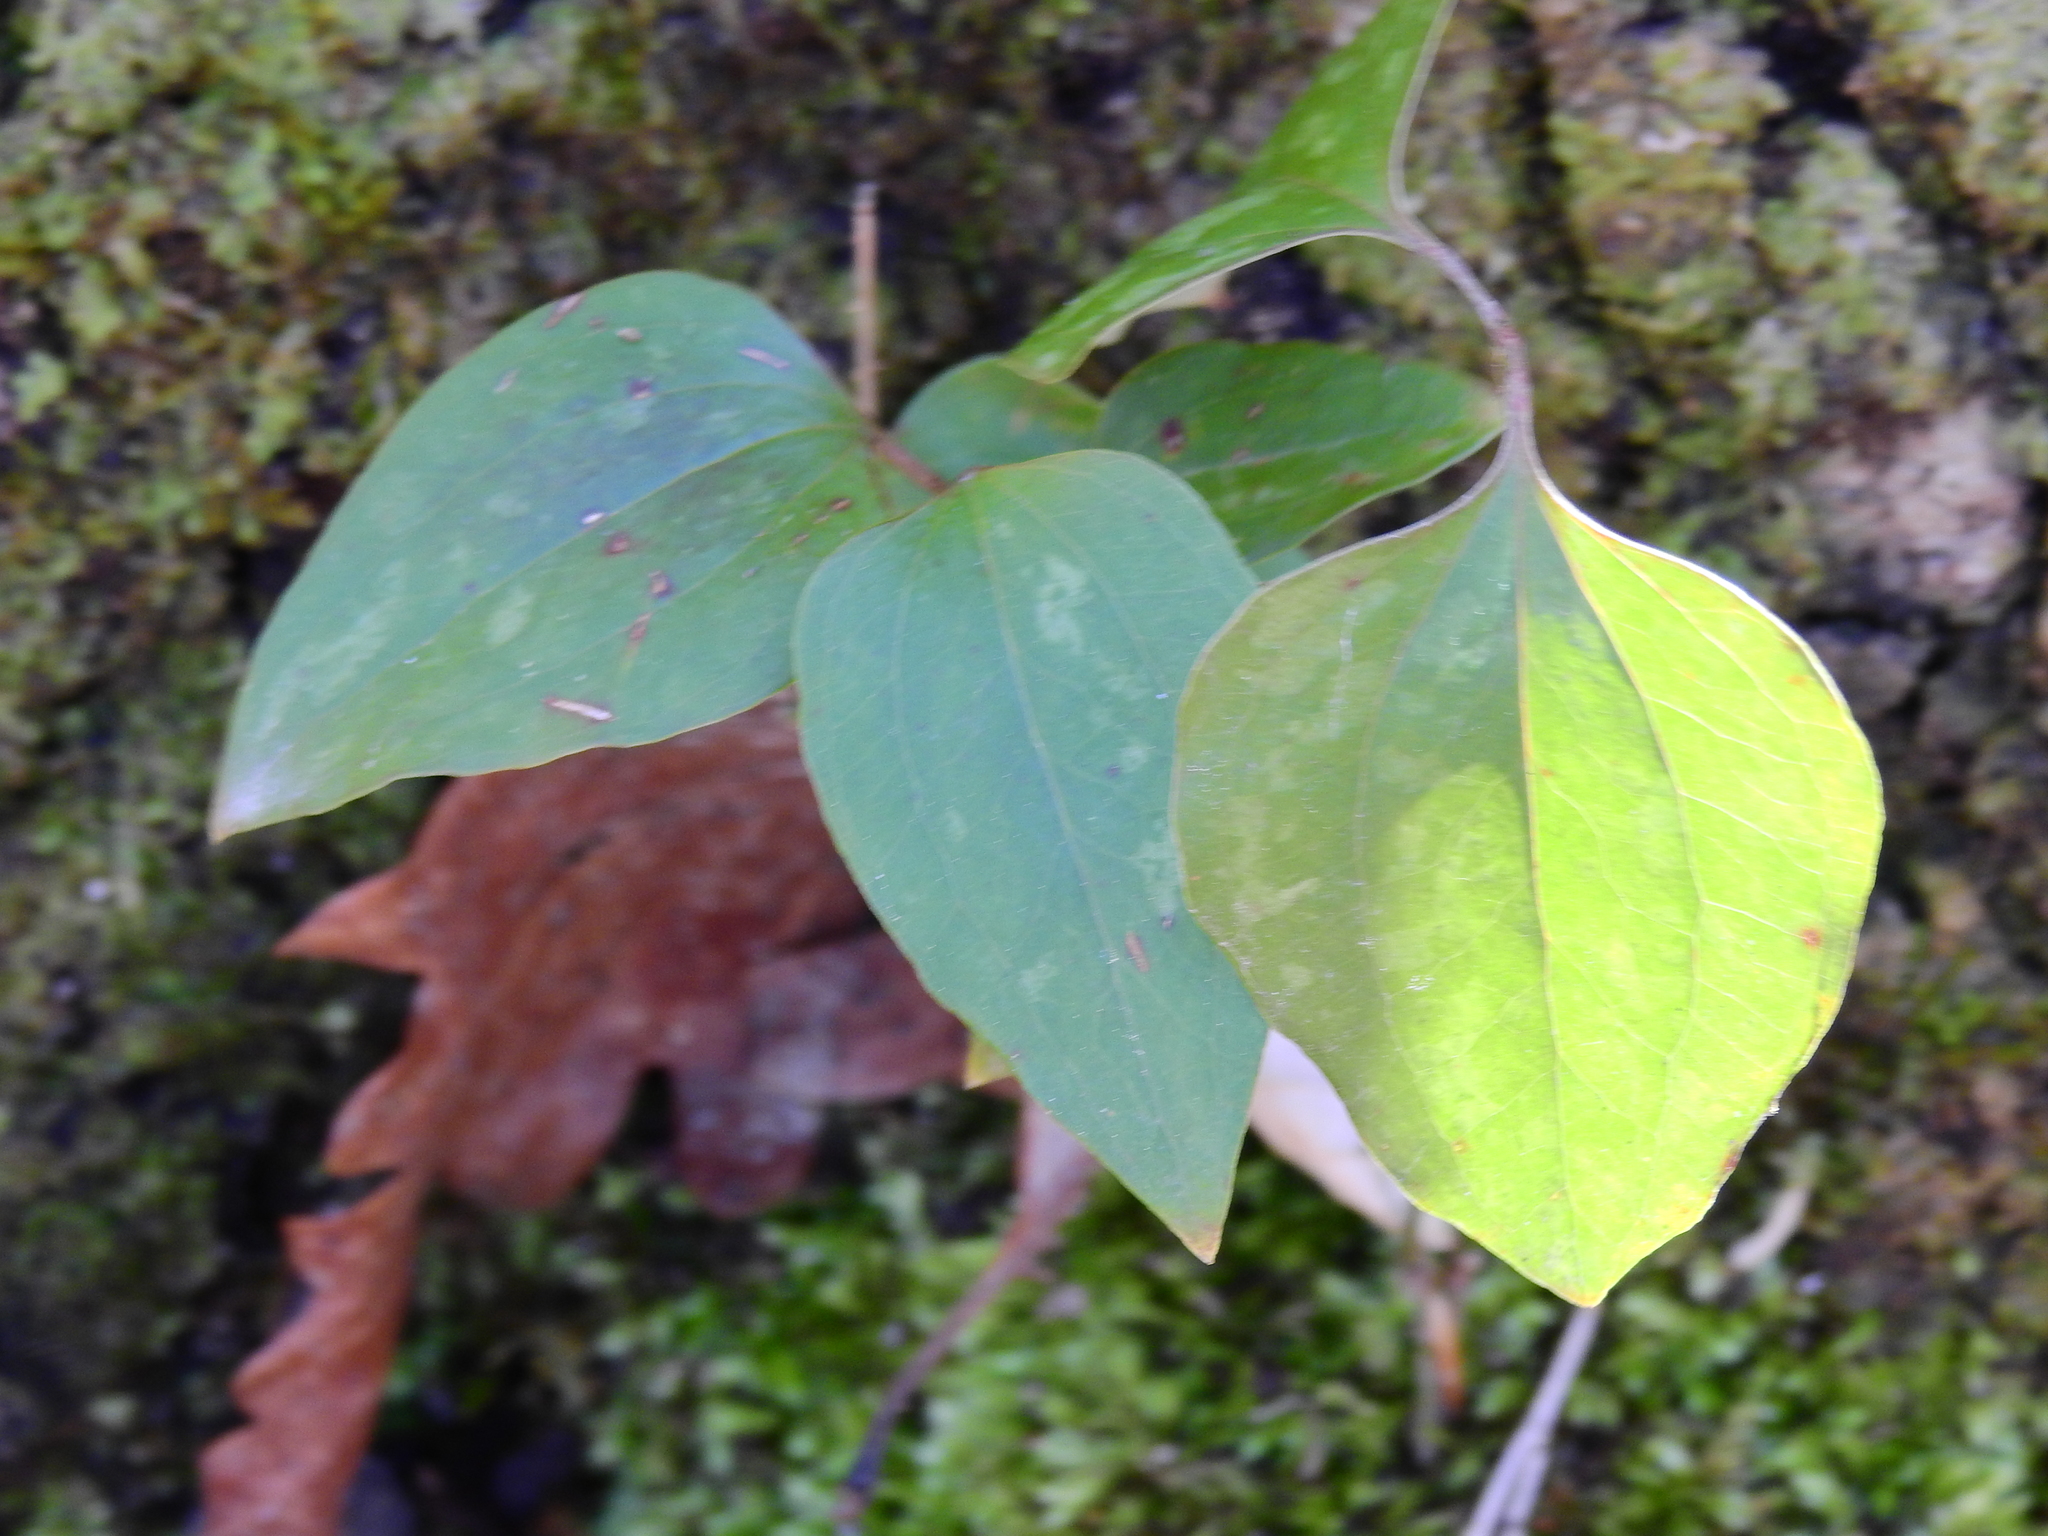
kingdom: Plantae
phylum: Tracheophyta
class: Liliopsida
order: Liliales
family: Smilacaceae
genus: Smilax
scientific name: Smilax glauca
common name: Cat greenbrier
